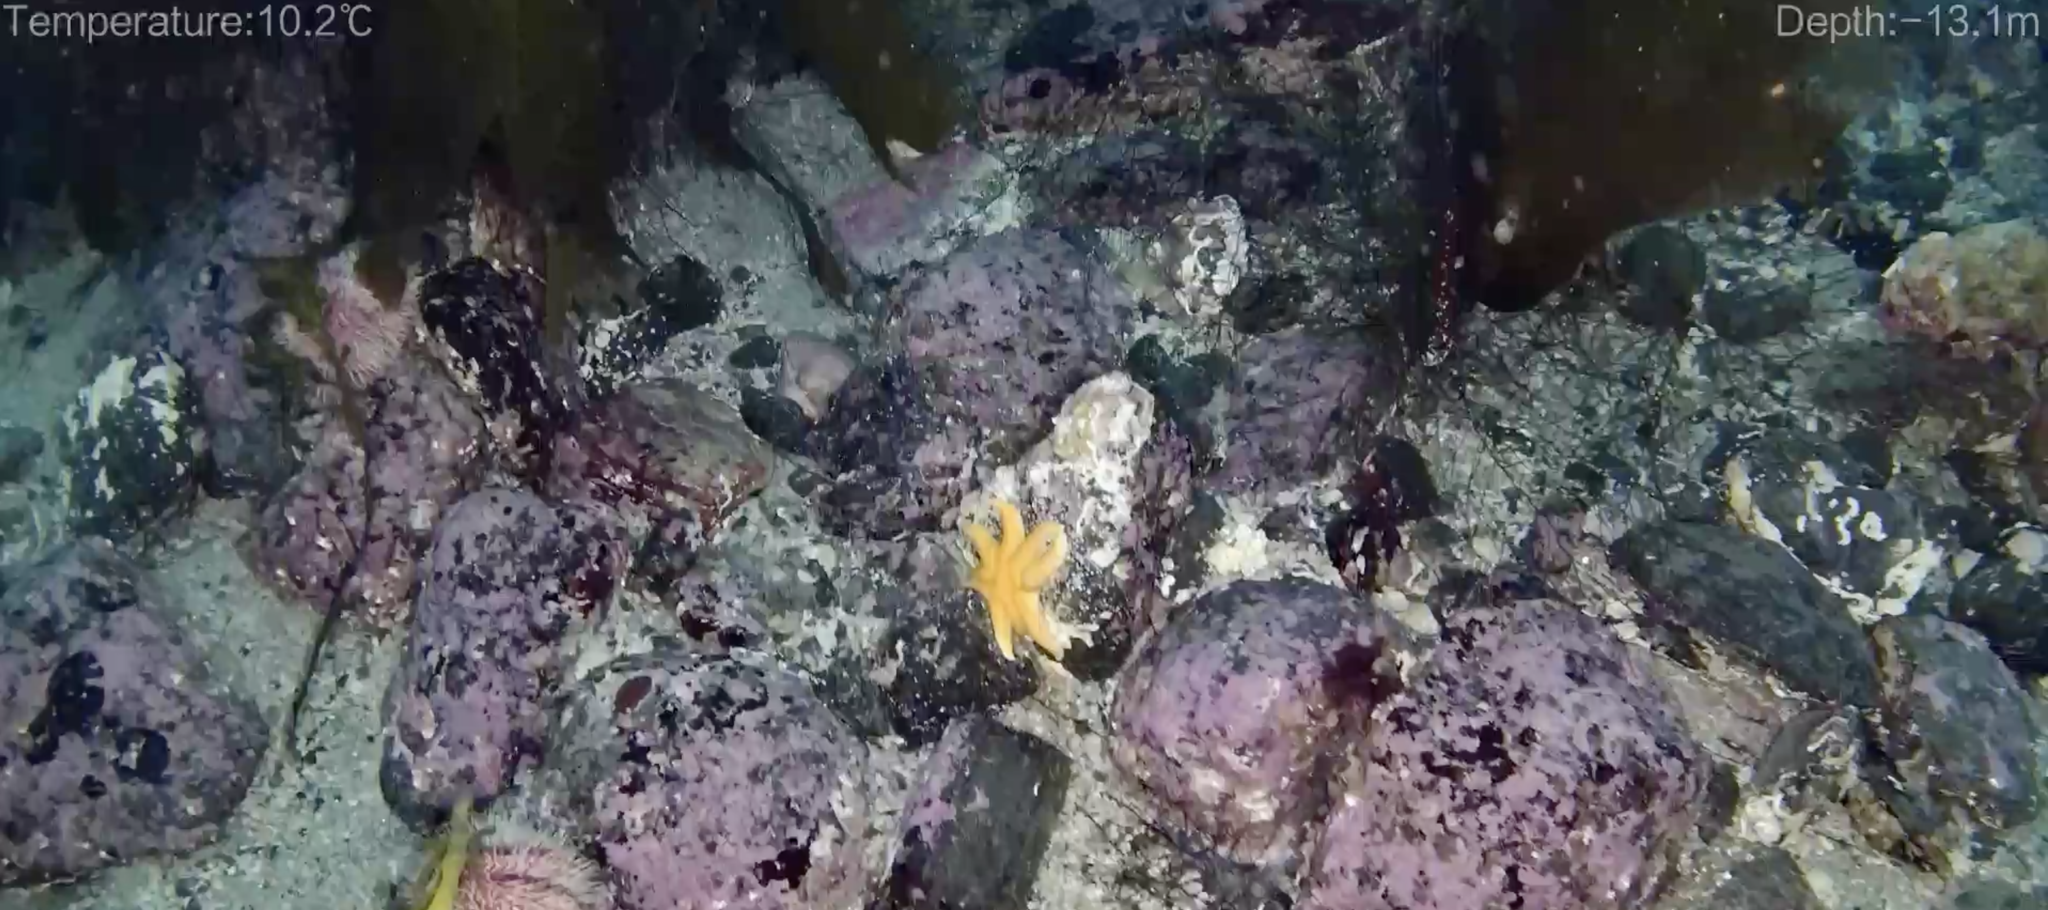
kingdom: Animalia
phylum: Echinodermata
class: Asteroidea
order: Valvatida
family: Solasteridae
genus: Solaster
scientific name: Solaster endeca
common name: Purple sun star
